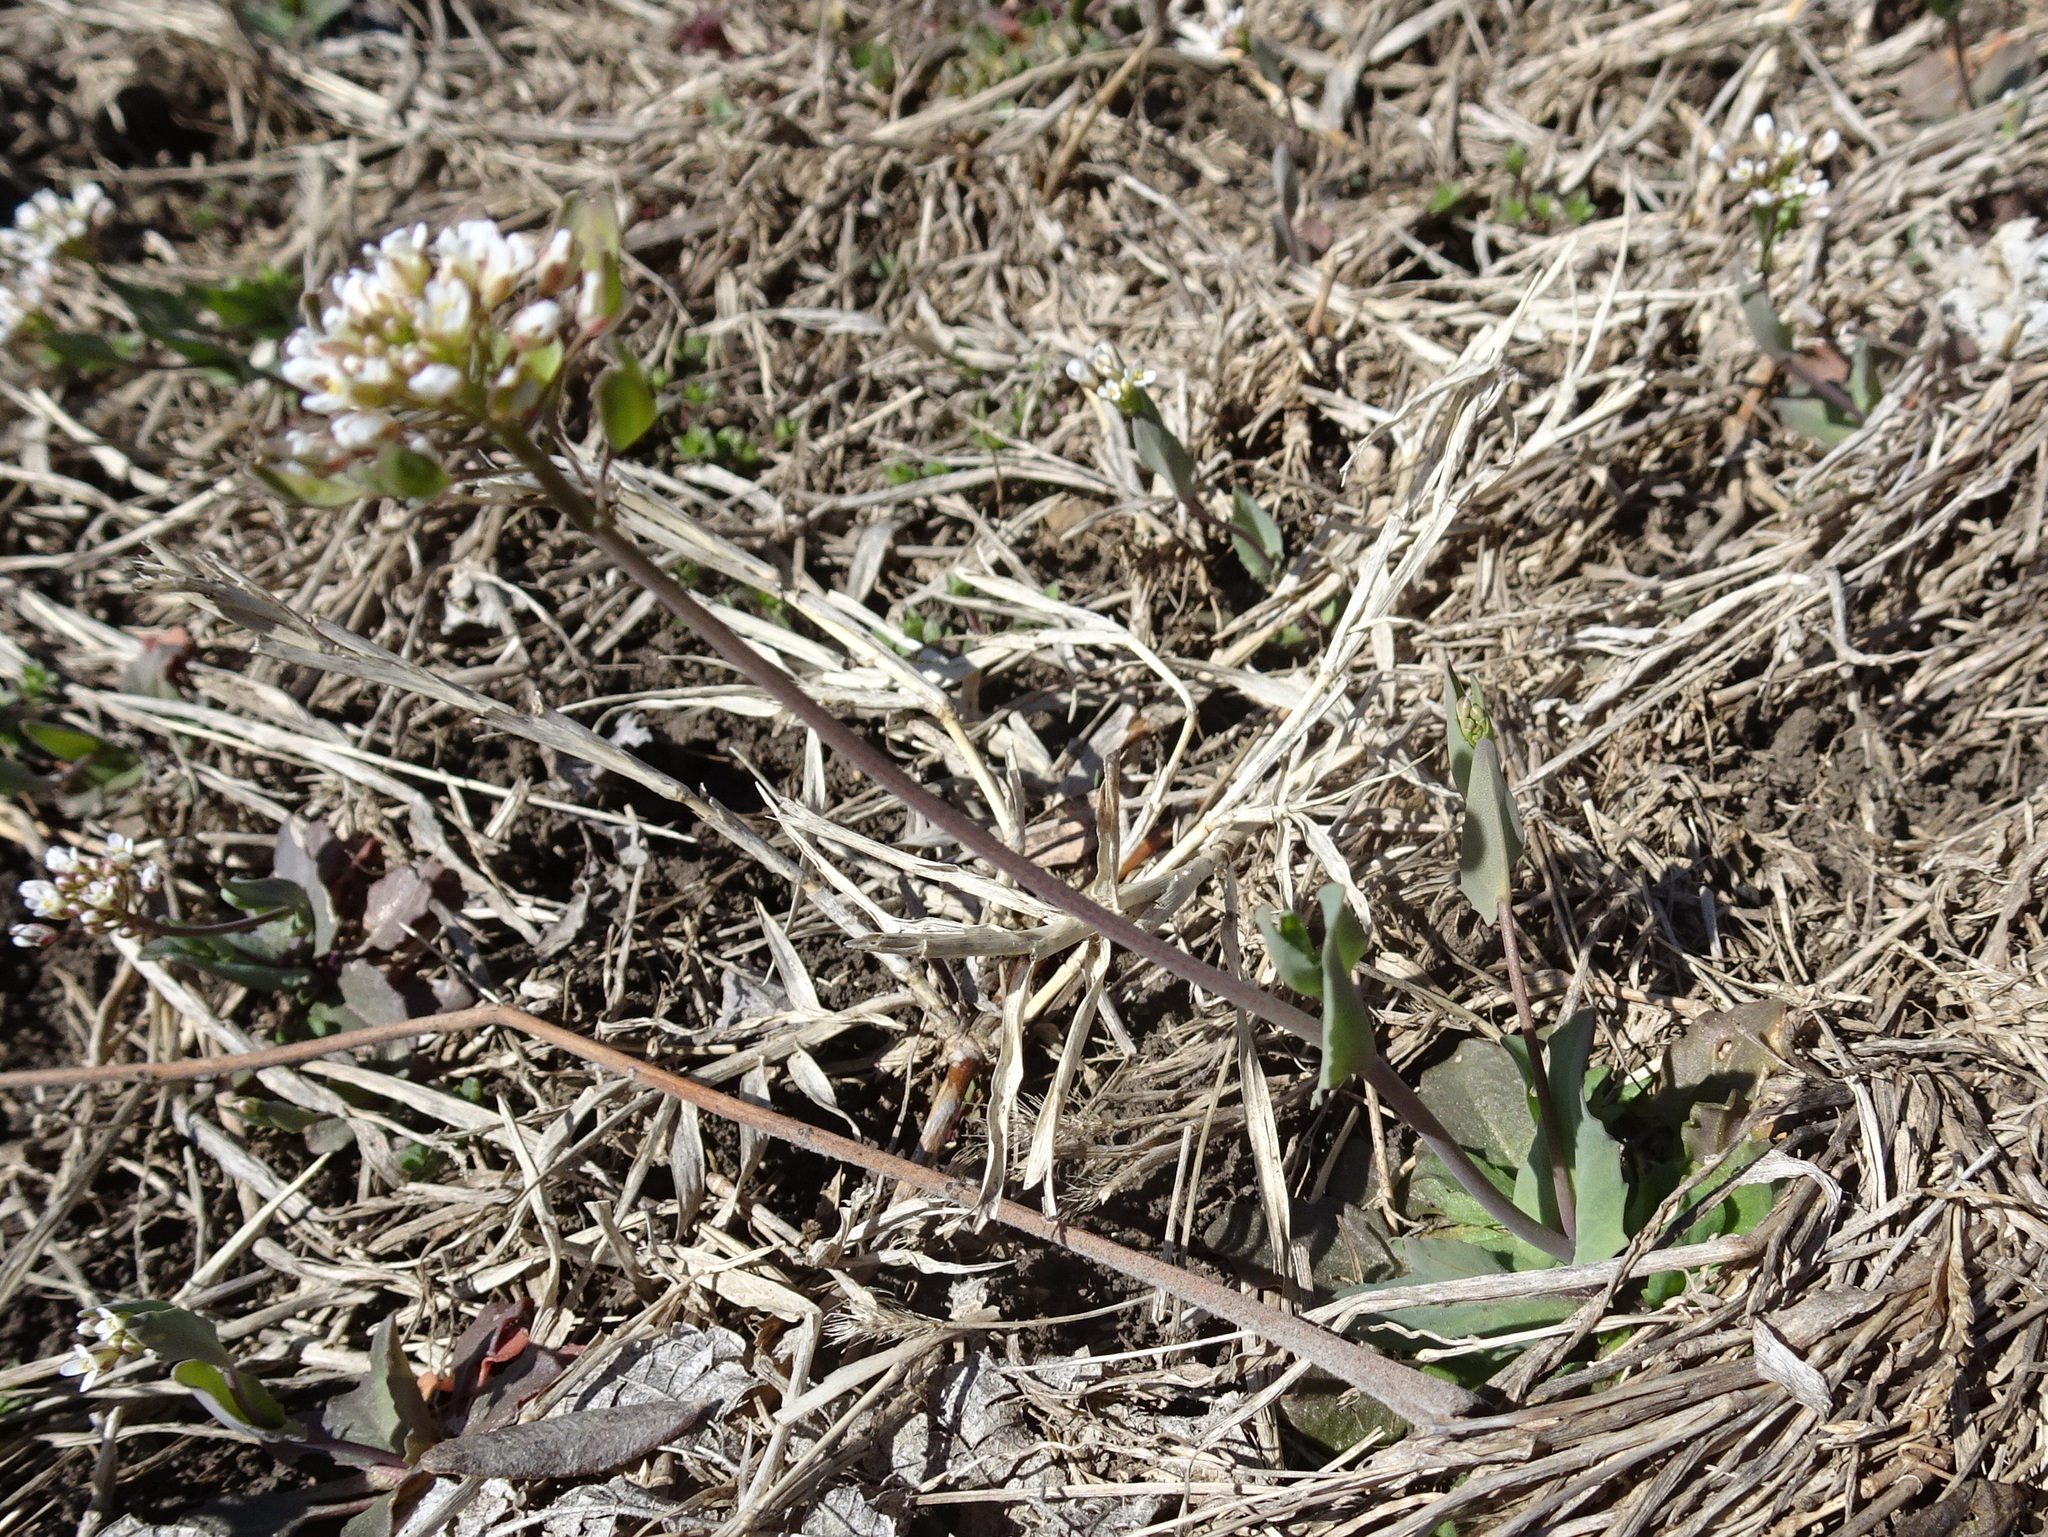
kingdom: Plantae
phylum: Tracheophyta
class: Magnoliopsida
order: Brassicales
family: Brassicaceae
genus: Noccaea
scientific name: Noccaea perfoliata
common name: Perfoliate pennycress
